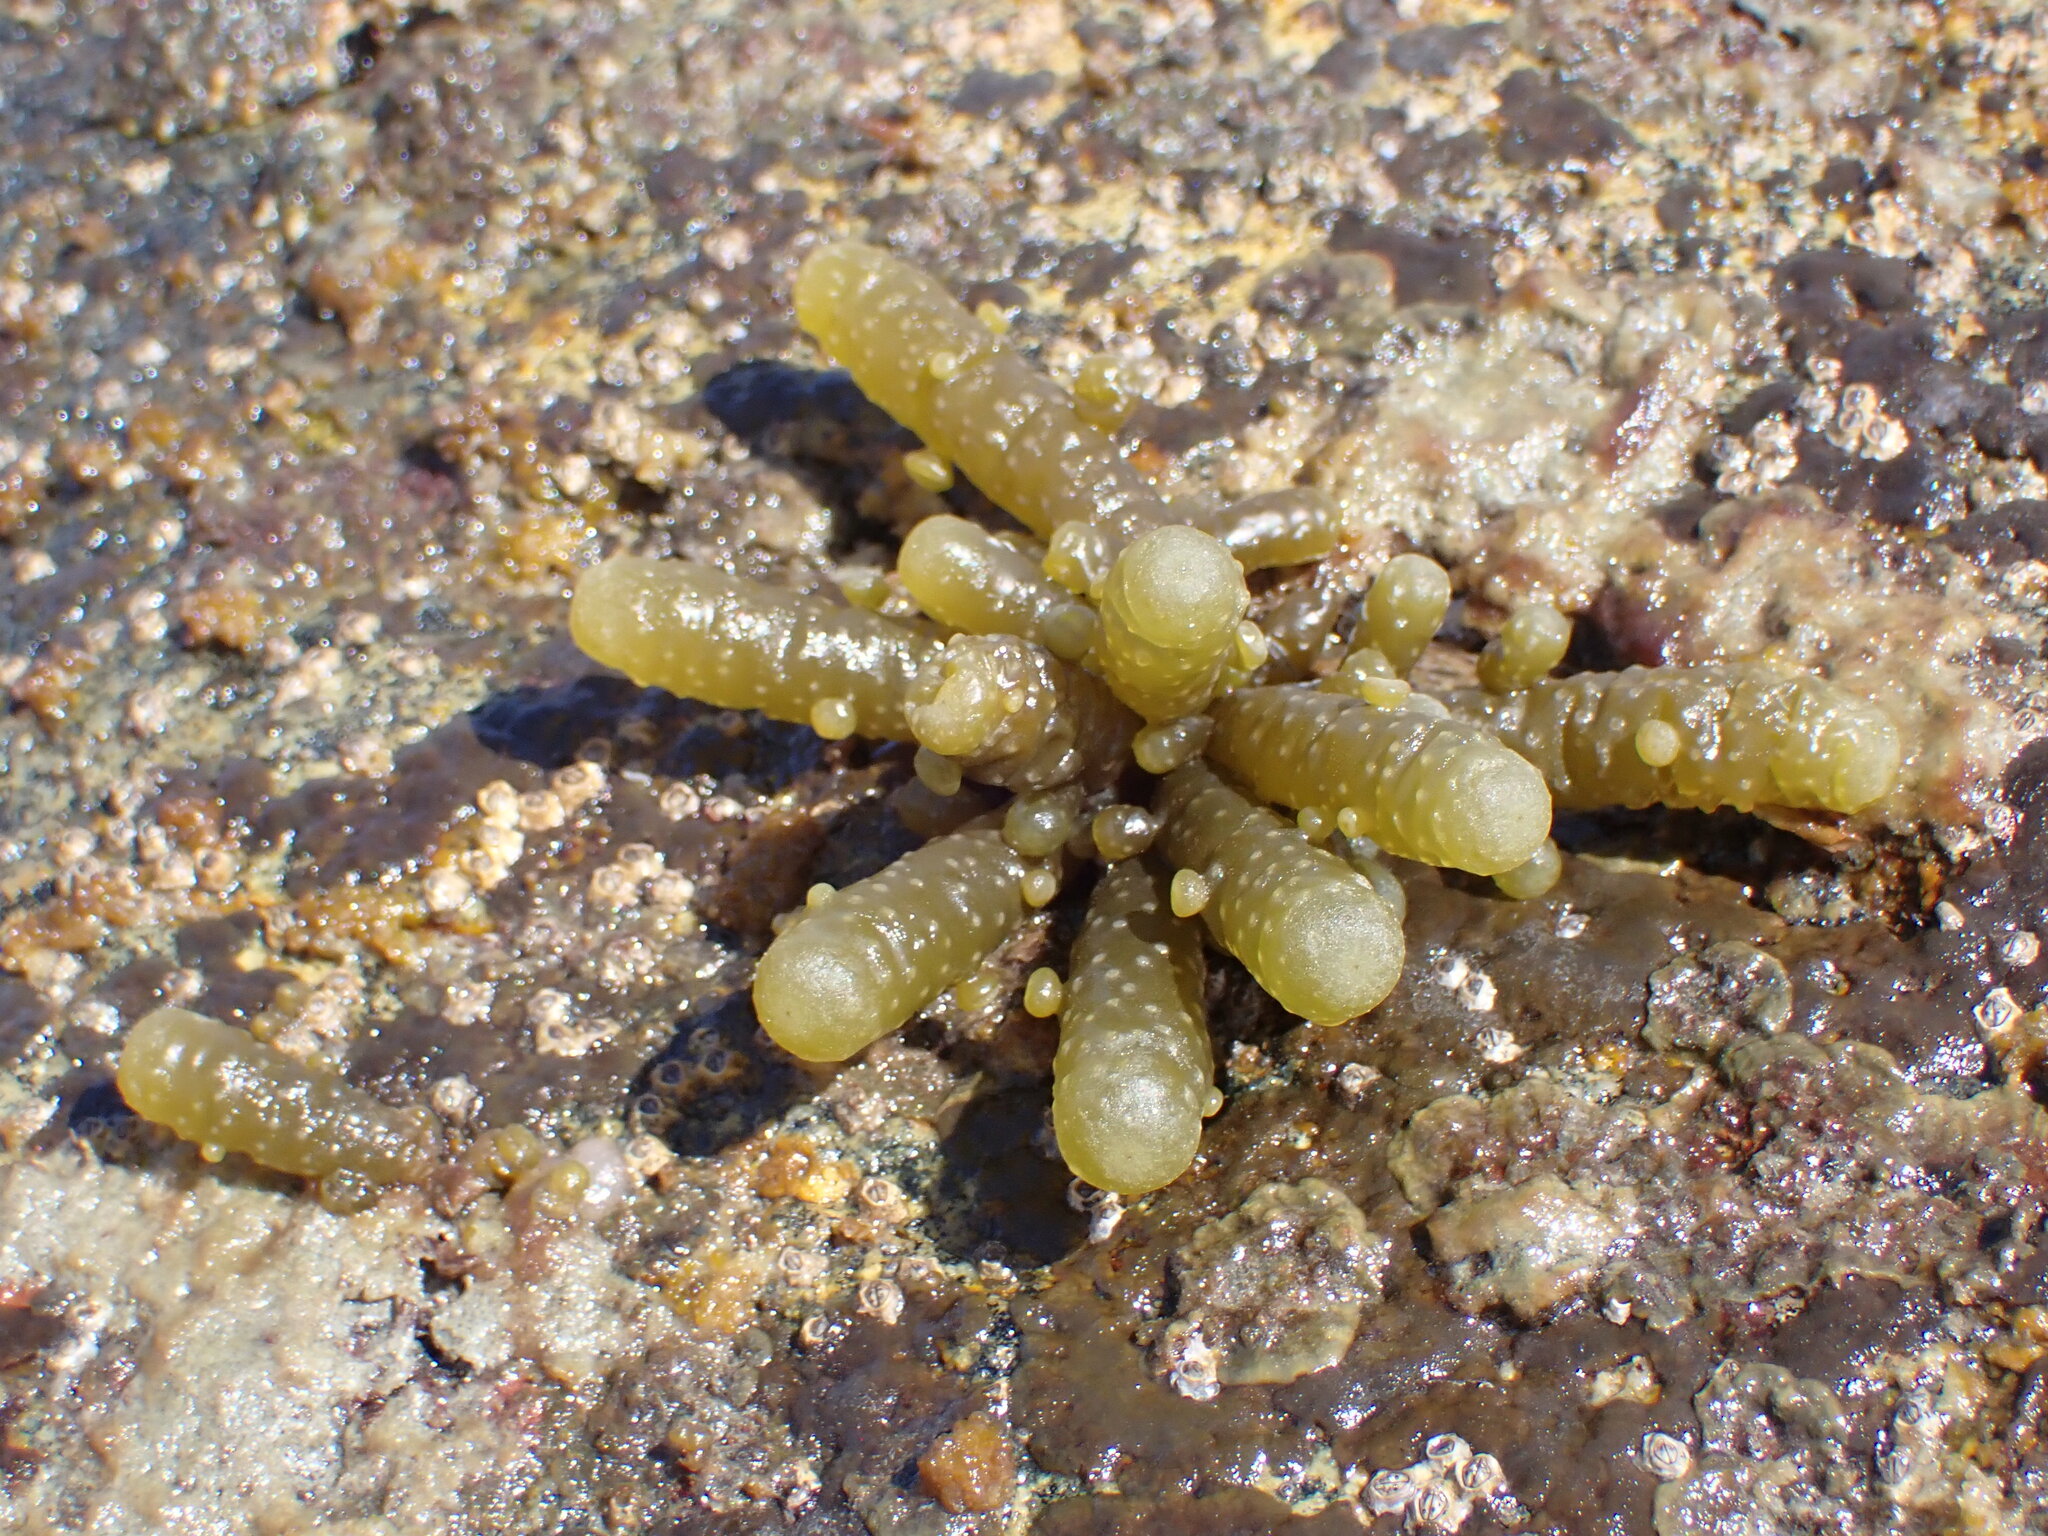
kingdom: Chromista
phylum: Ochrophyta
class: Phaeophyceae
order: Scytothamnales
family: Splachnidiaceae
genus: Splachnidium
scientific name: Splachnidium rugosum
